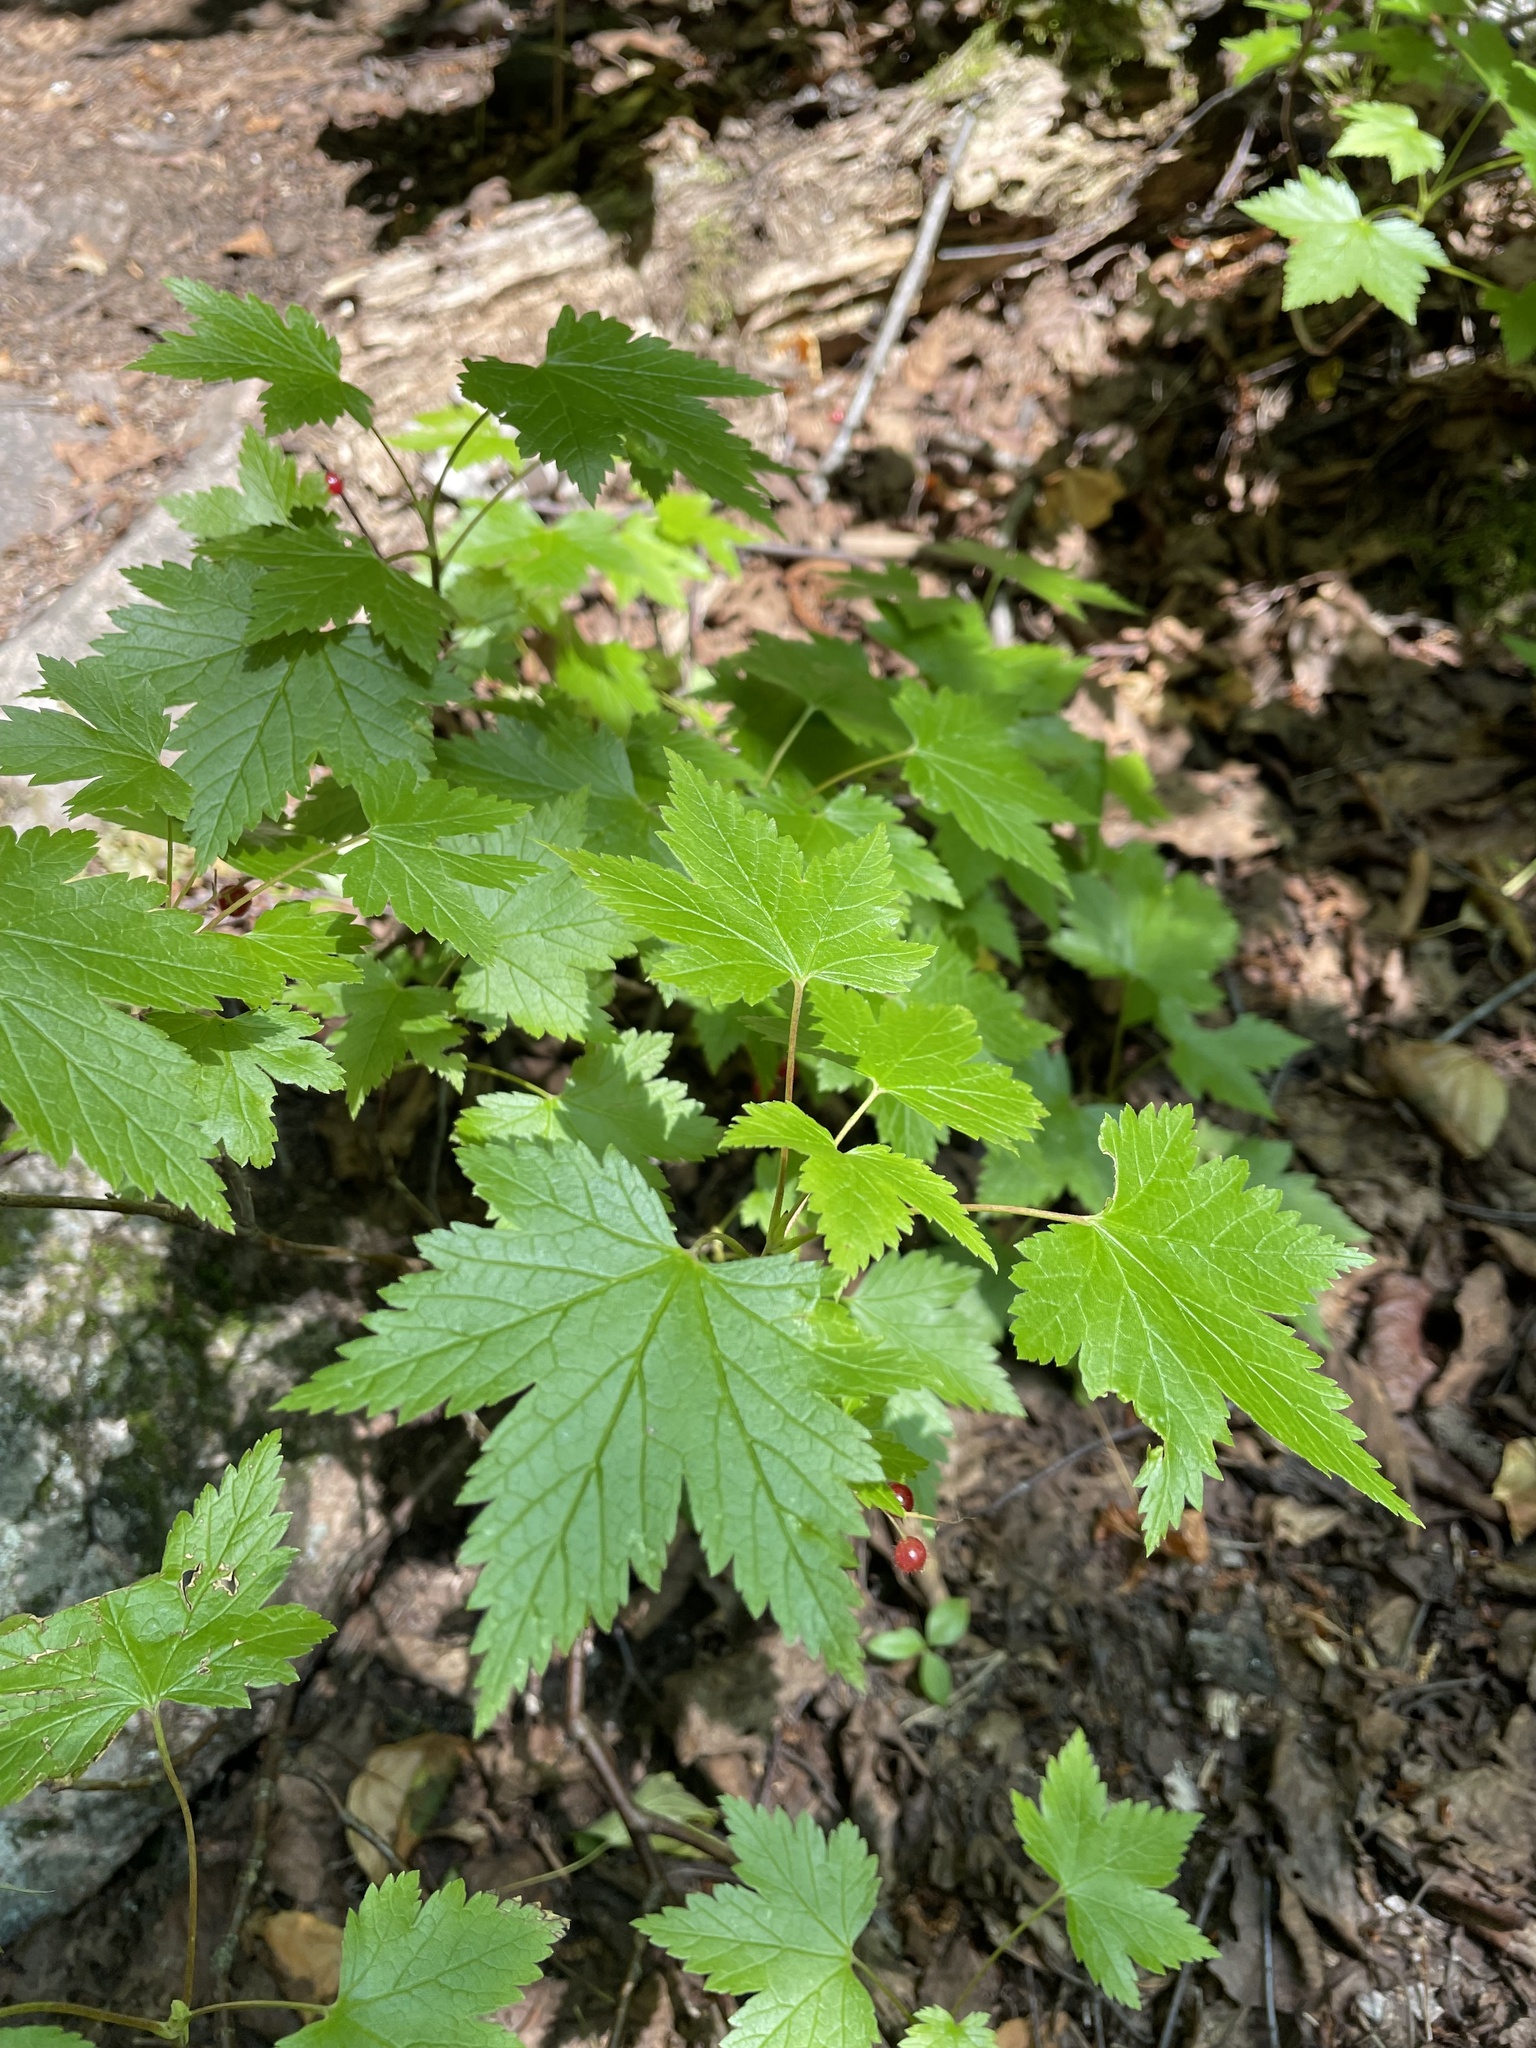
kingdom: Plantae
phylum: Tracheophyta
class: Magnoliopsida
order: Saxifragales
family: Grossulariaceae
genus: Ribes
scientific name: Ribes glandulosum
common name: Skunk currant
